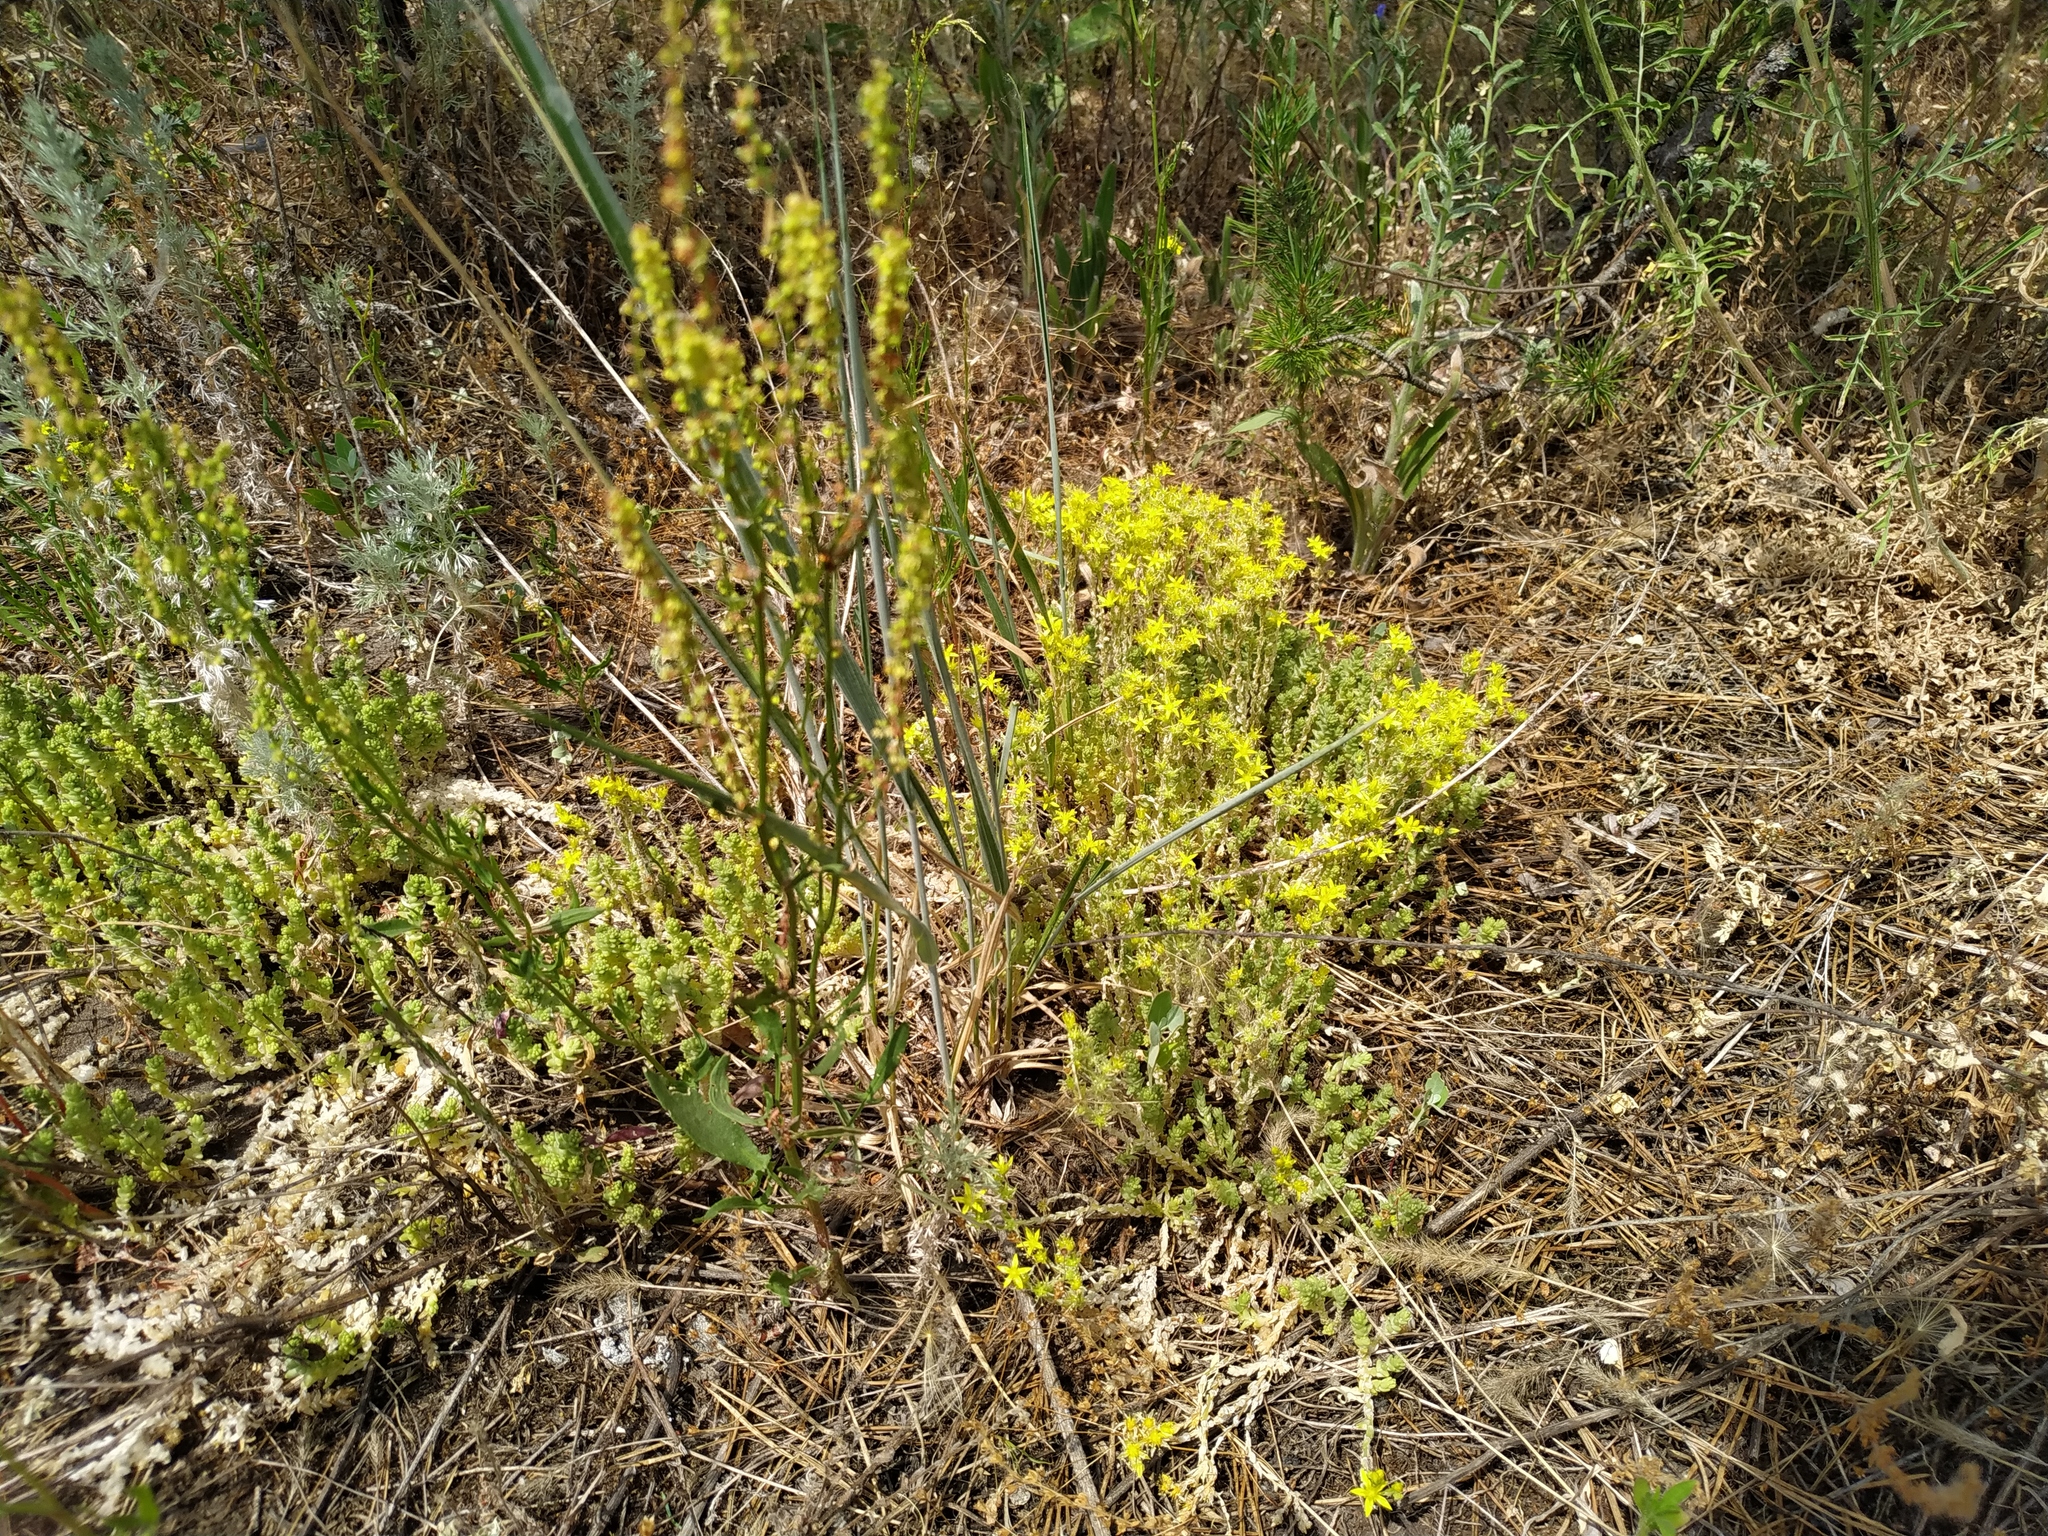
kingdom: Plantae
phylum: Tracheophyta
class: Magnoliopsida
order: Saxifragales
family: Crassulaceae
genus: Sedum
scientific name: Sedum acre
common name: Biting stonecrop
